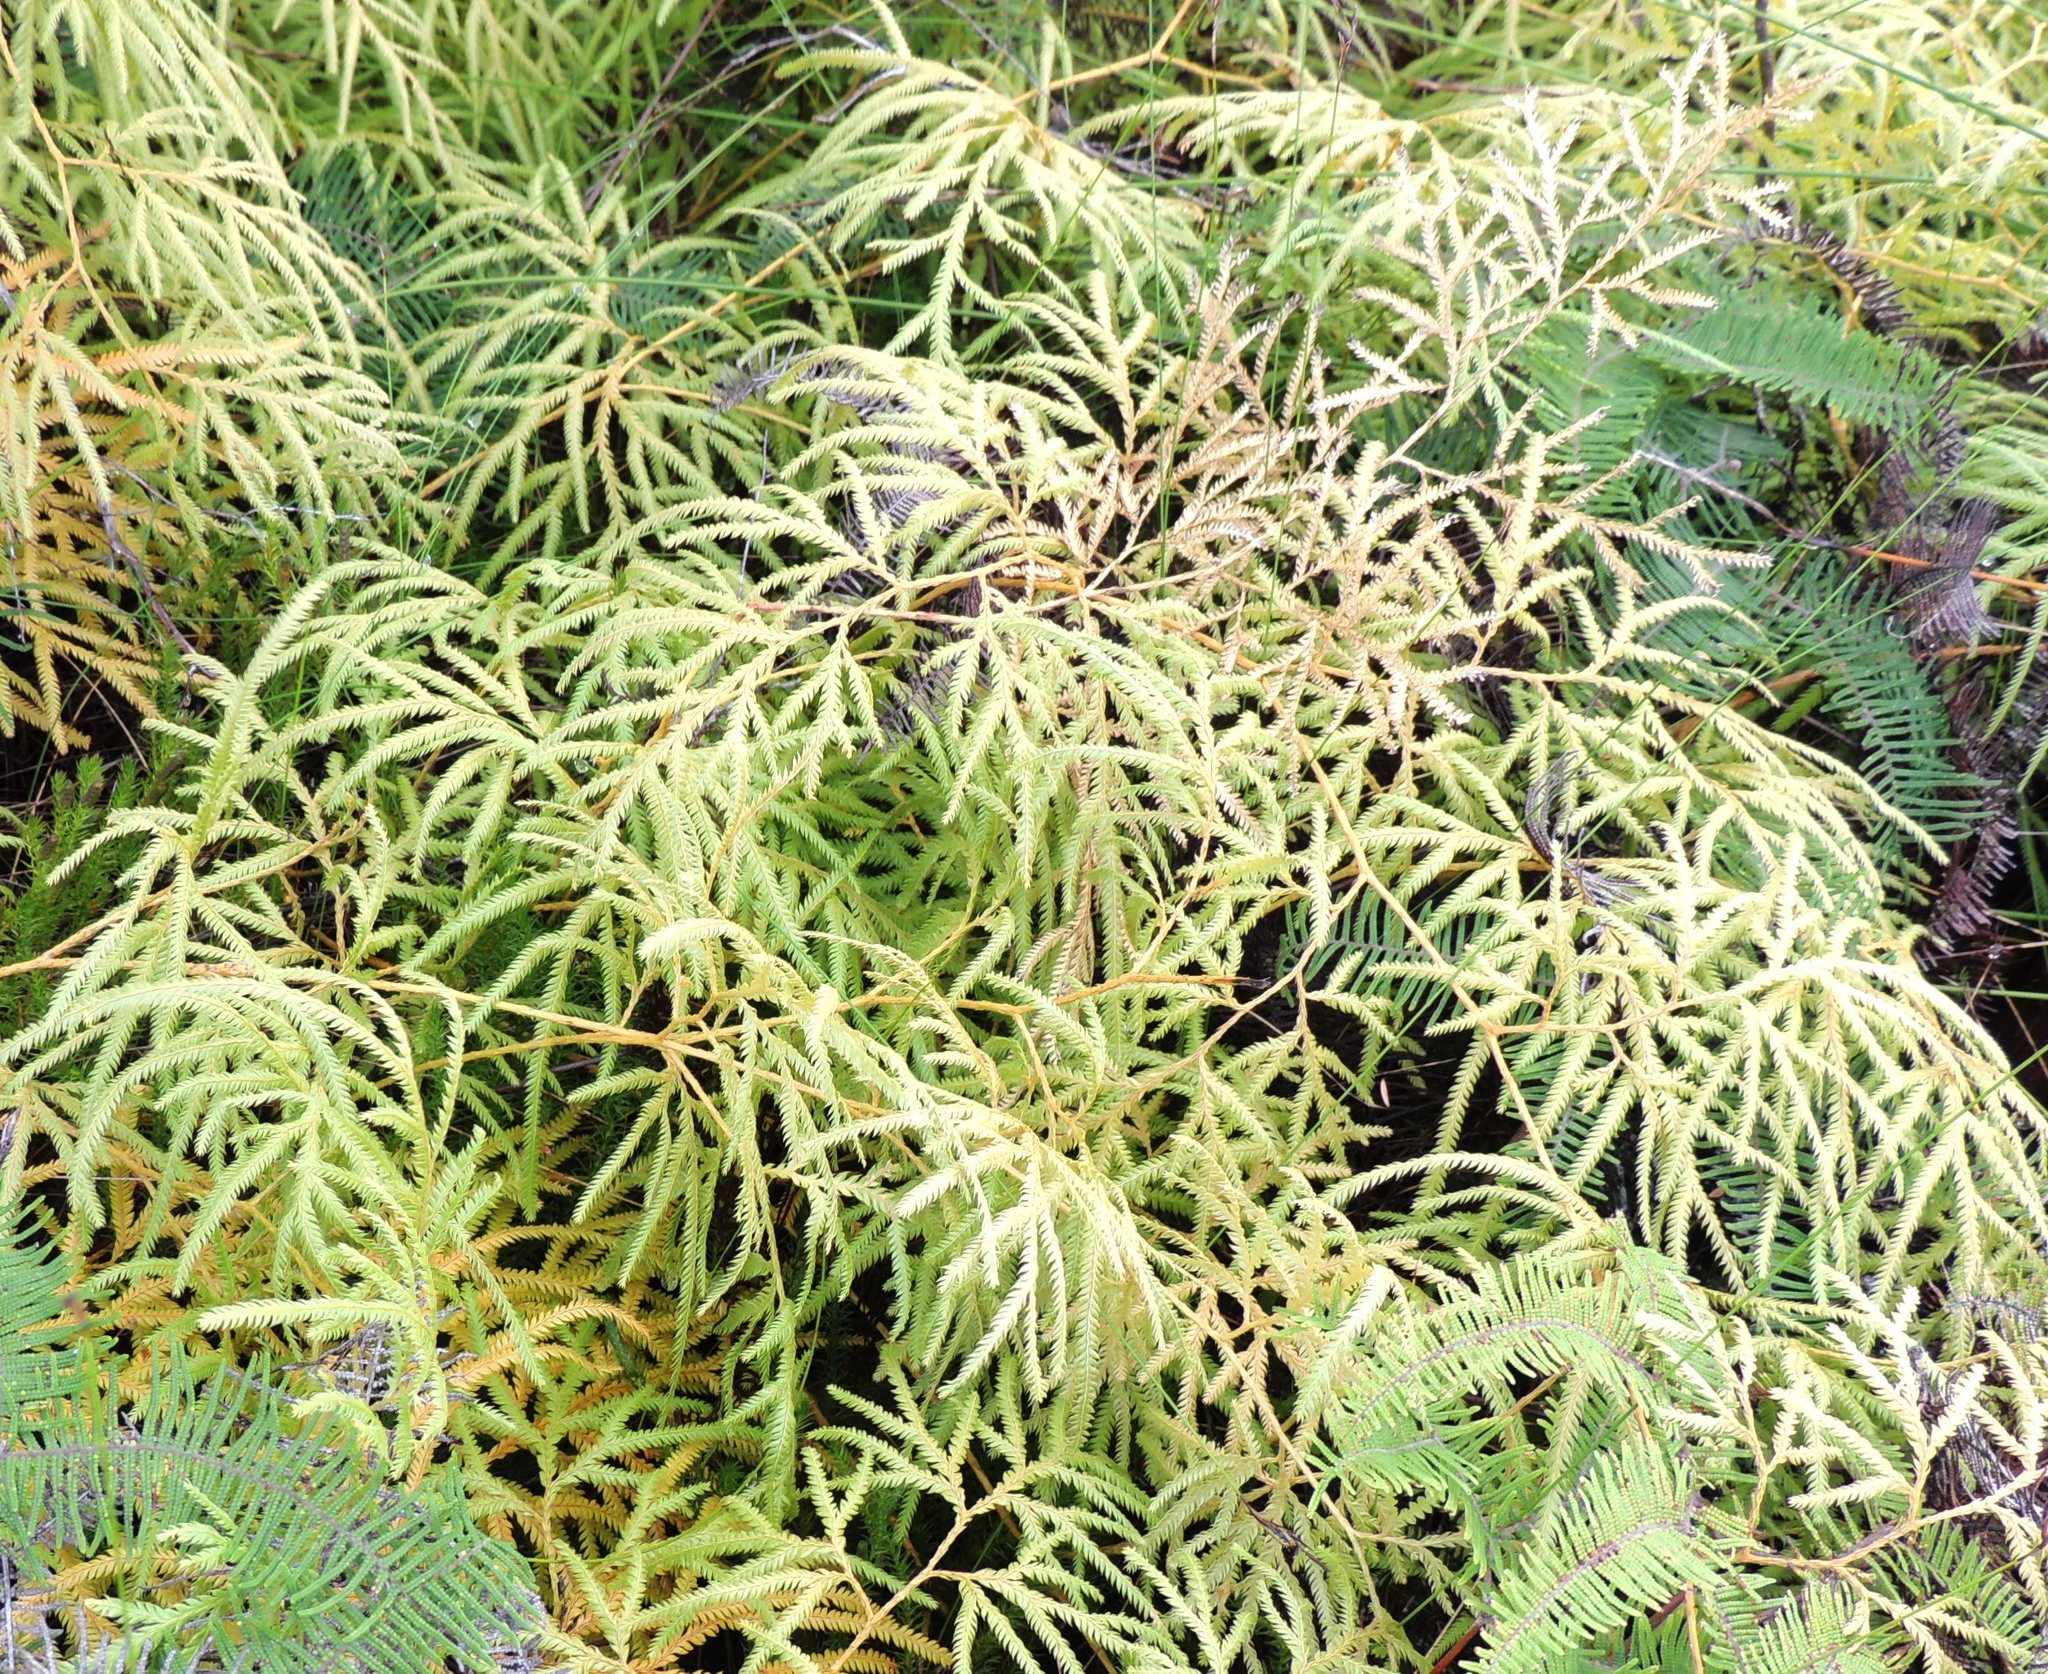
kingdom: Plantae
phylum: Tracheophyta
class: Lycopodiopsida
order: Lycopodiales
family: Lycopodiaceae
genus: Lycopodium
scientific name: Lycopodium volubile
